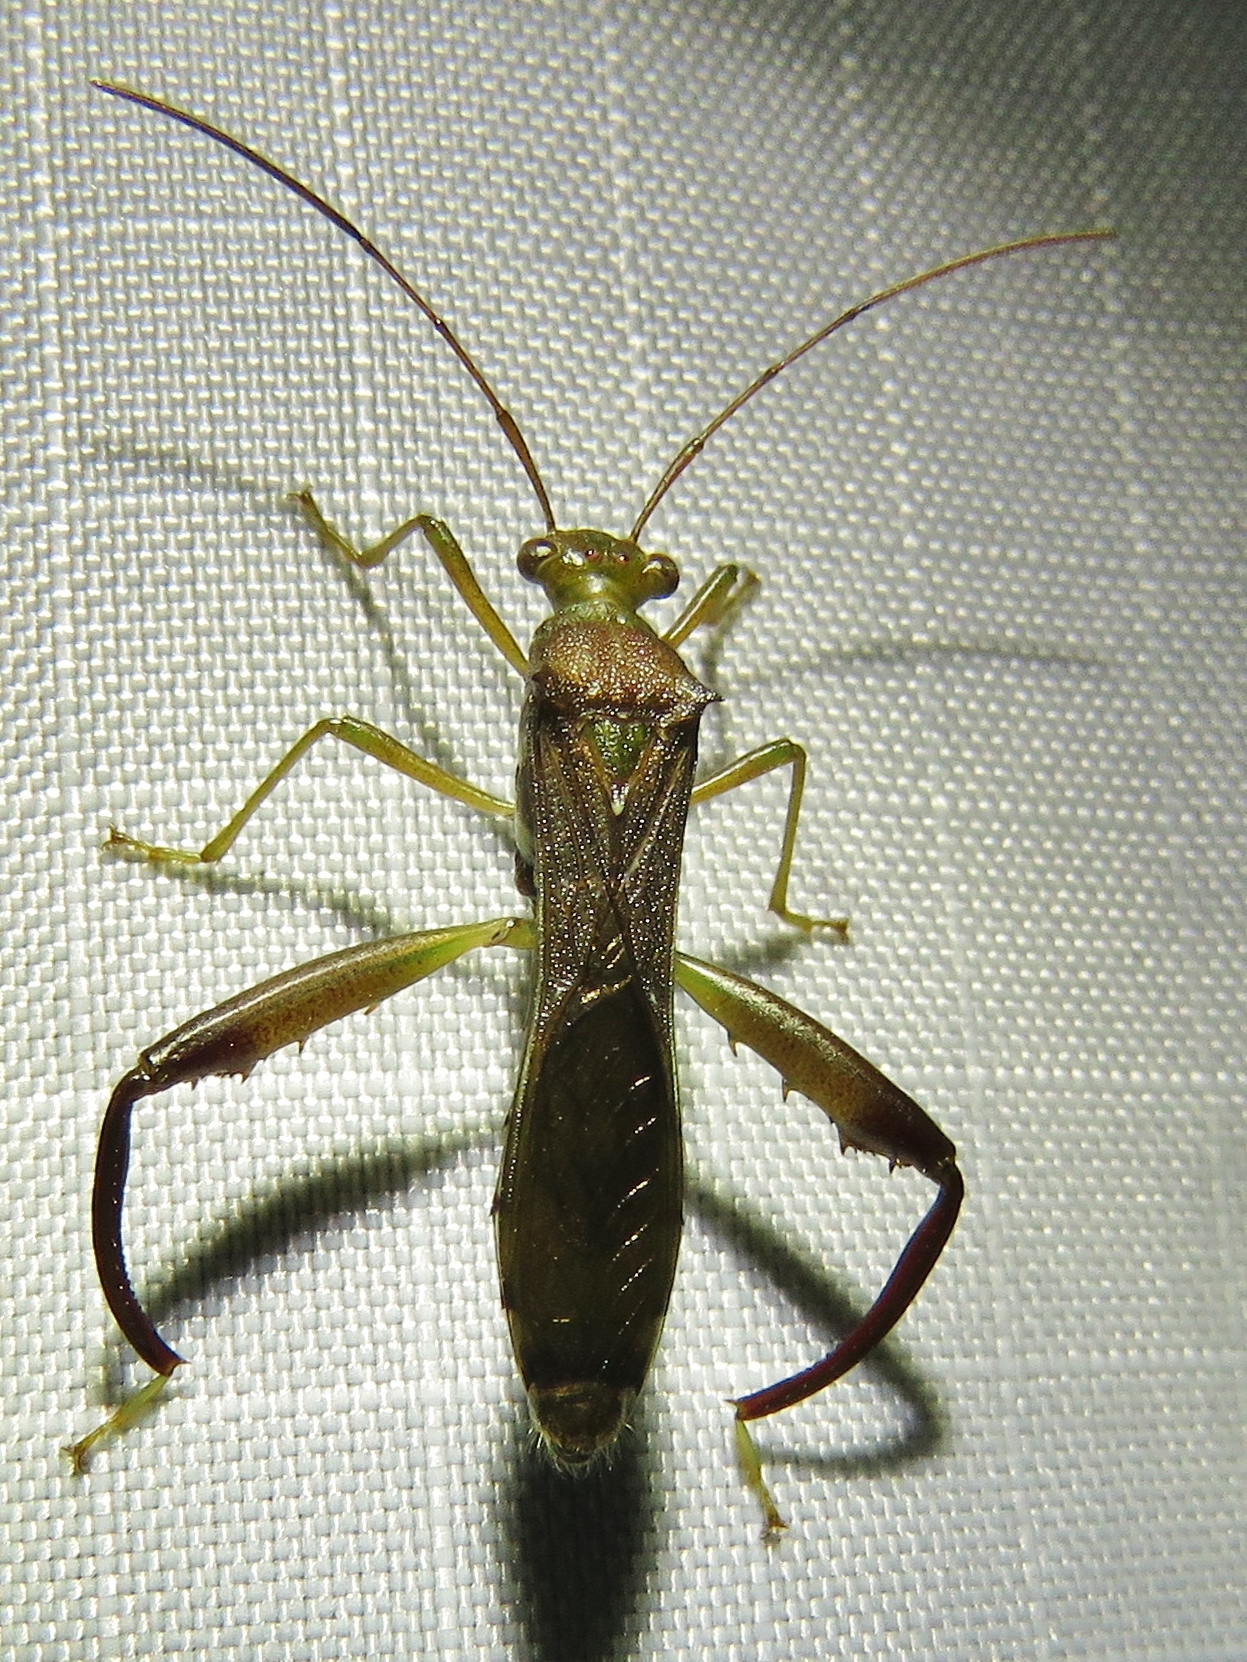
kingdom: Animalia
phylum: Arthropoda
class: Insecta
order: Hemiptera
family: Alydidae
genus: Hyalymenus
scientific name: Hyalymenus tarsatus
